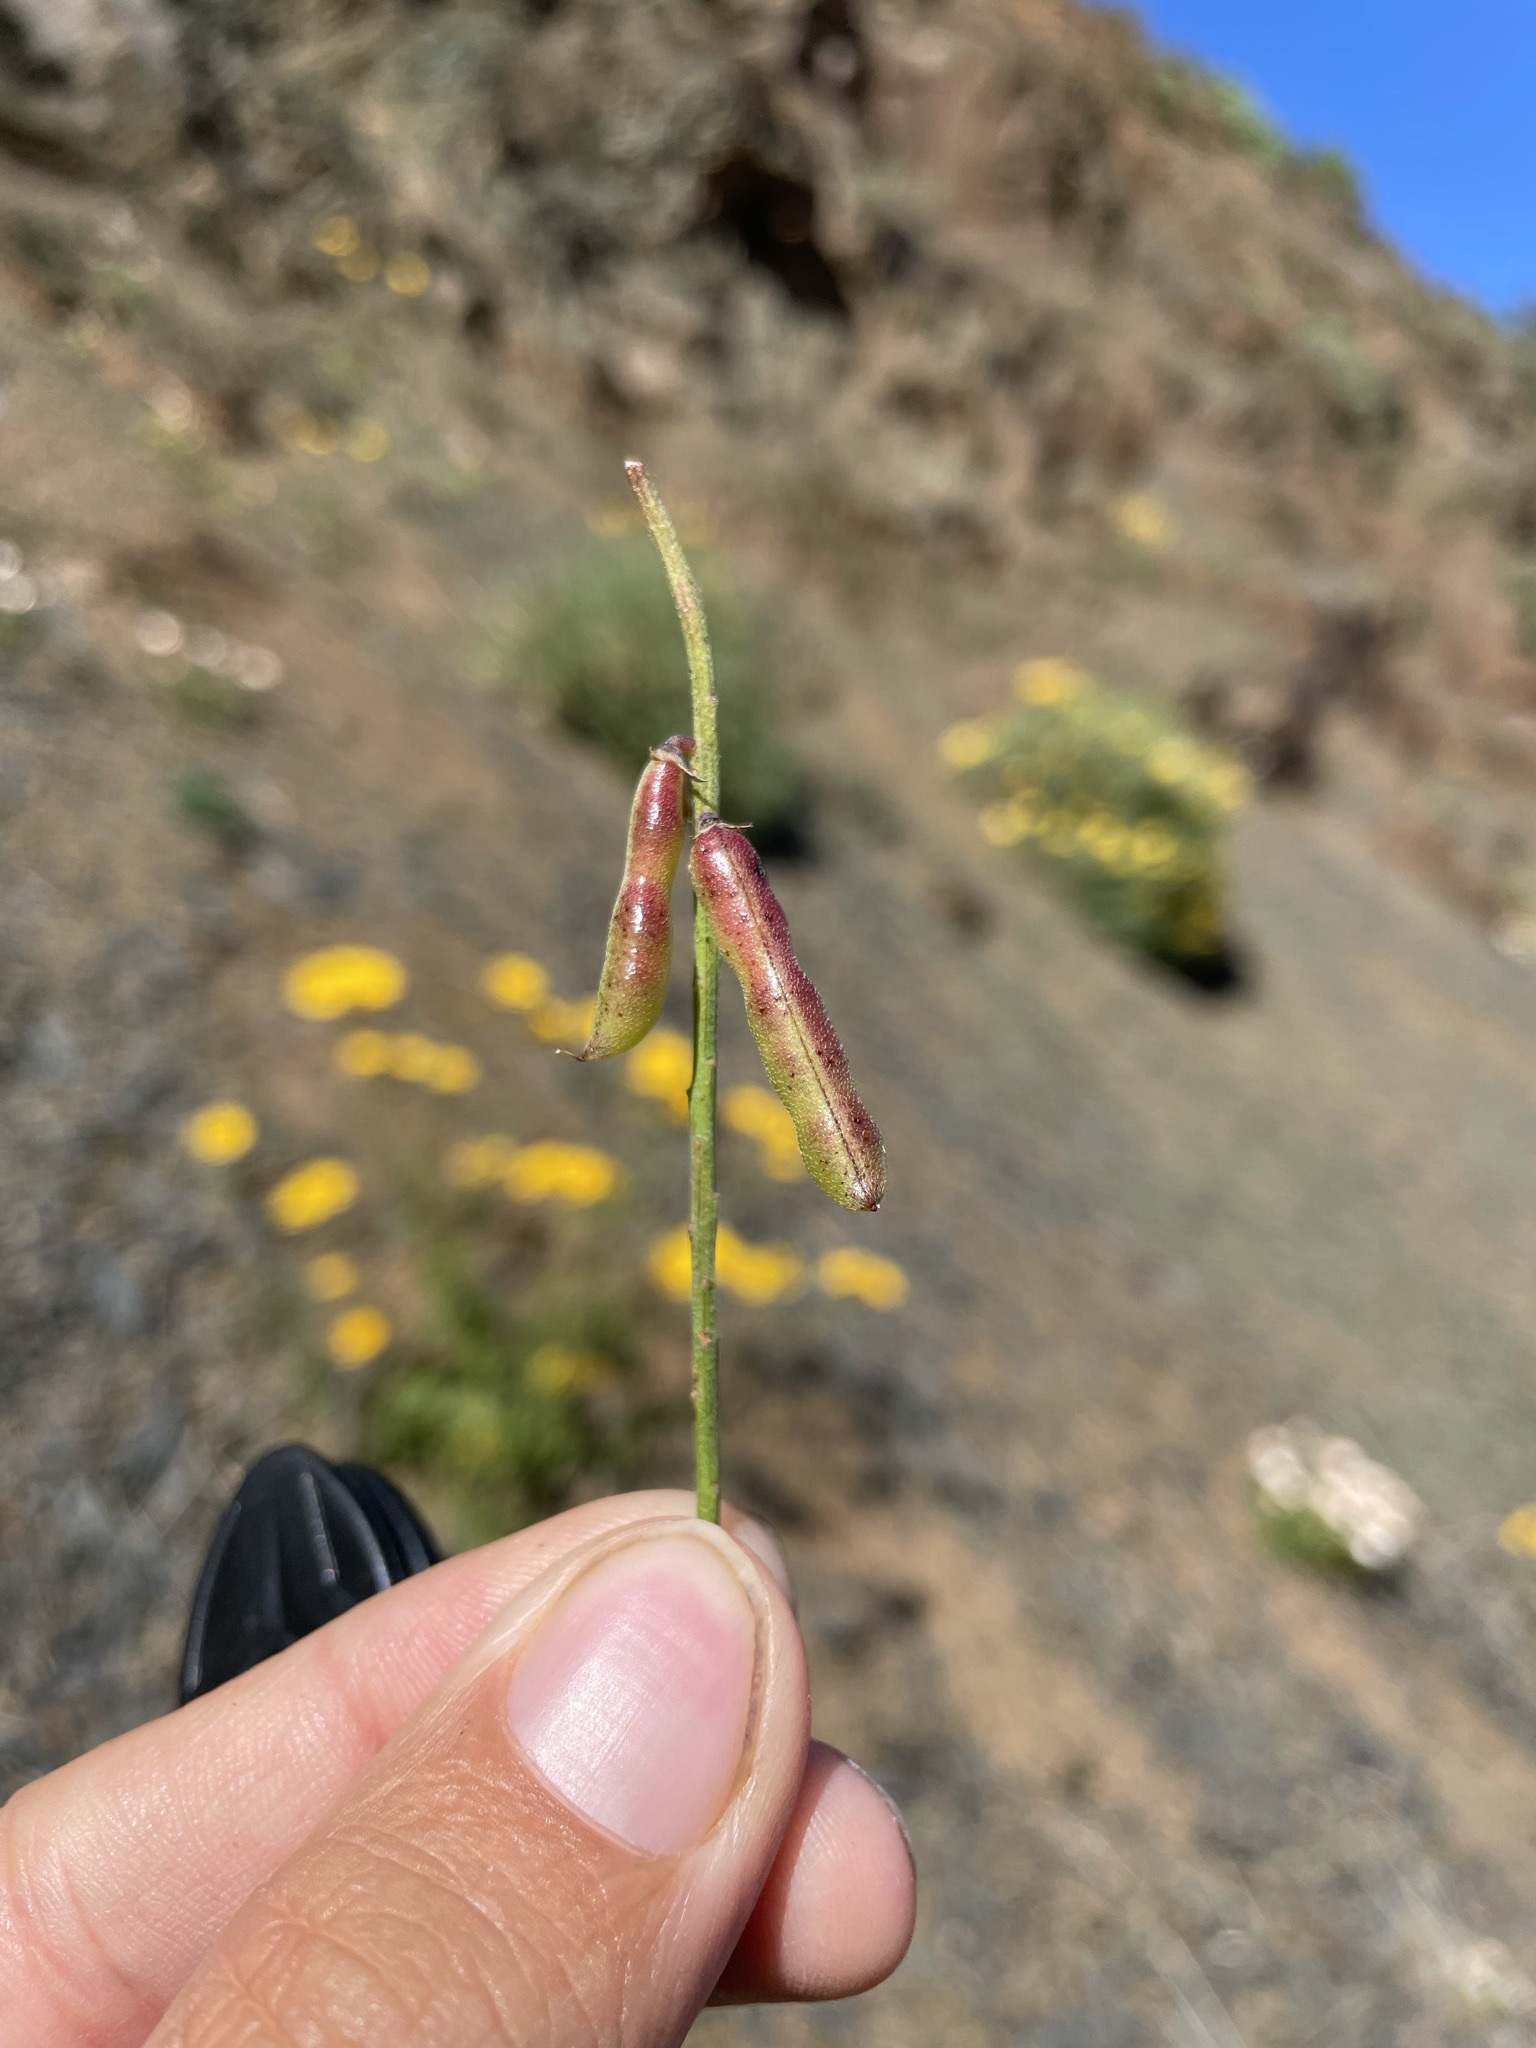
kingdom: Plantae
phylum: Tracheophyta
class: Magnoliopsida
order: Fabales
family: Fabaceae
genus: Indigofera
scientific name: Indigofera intermedia
